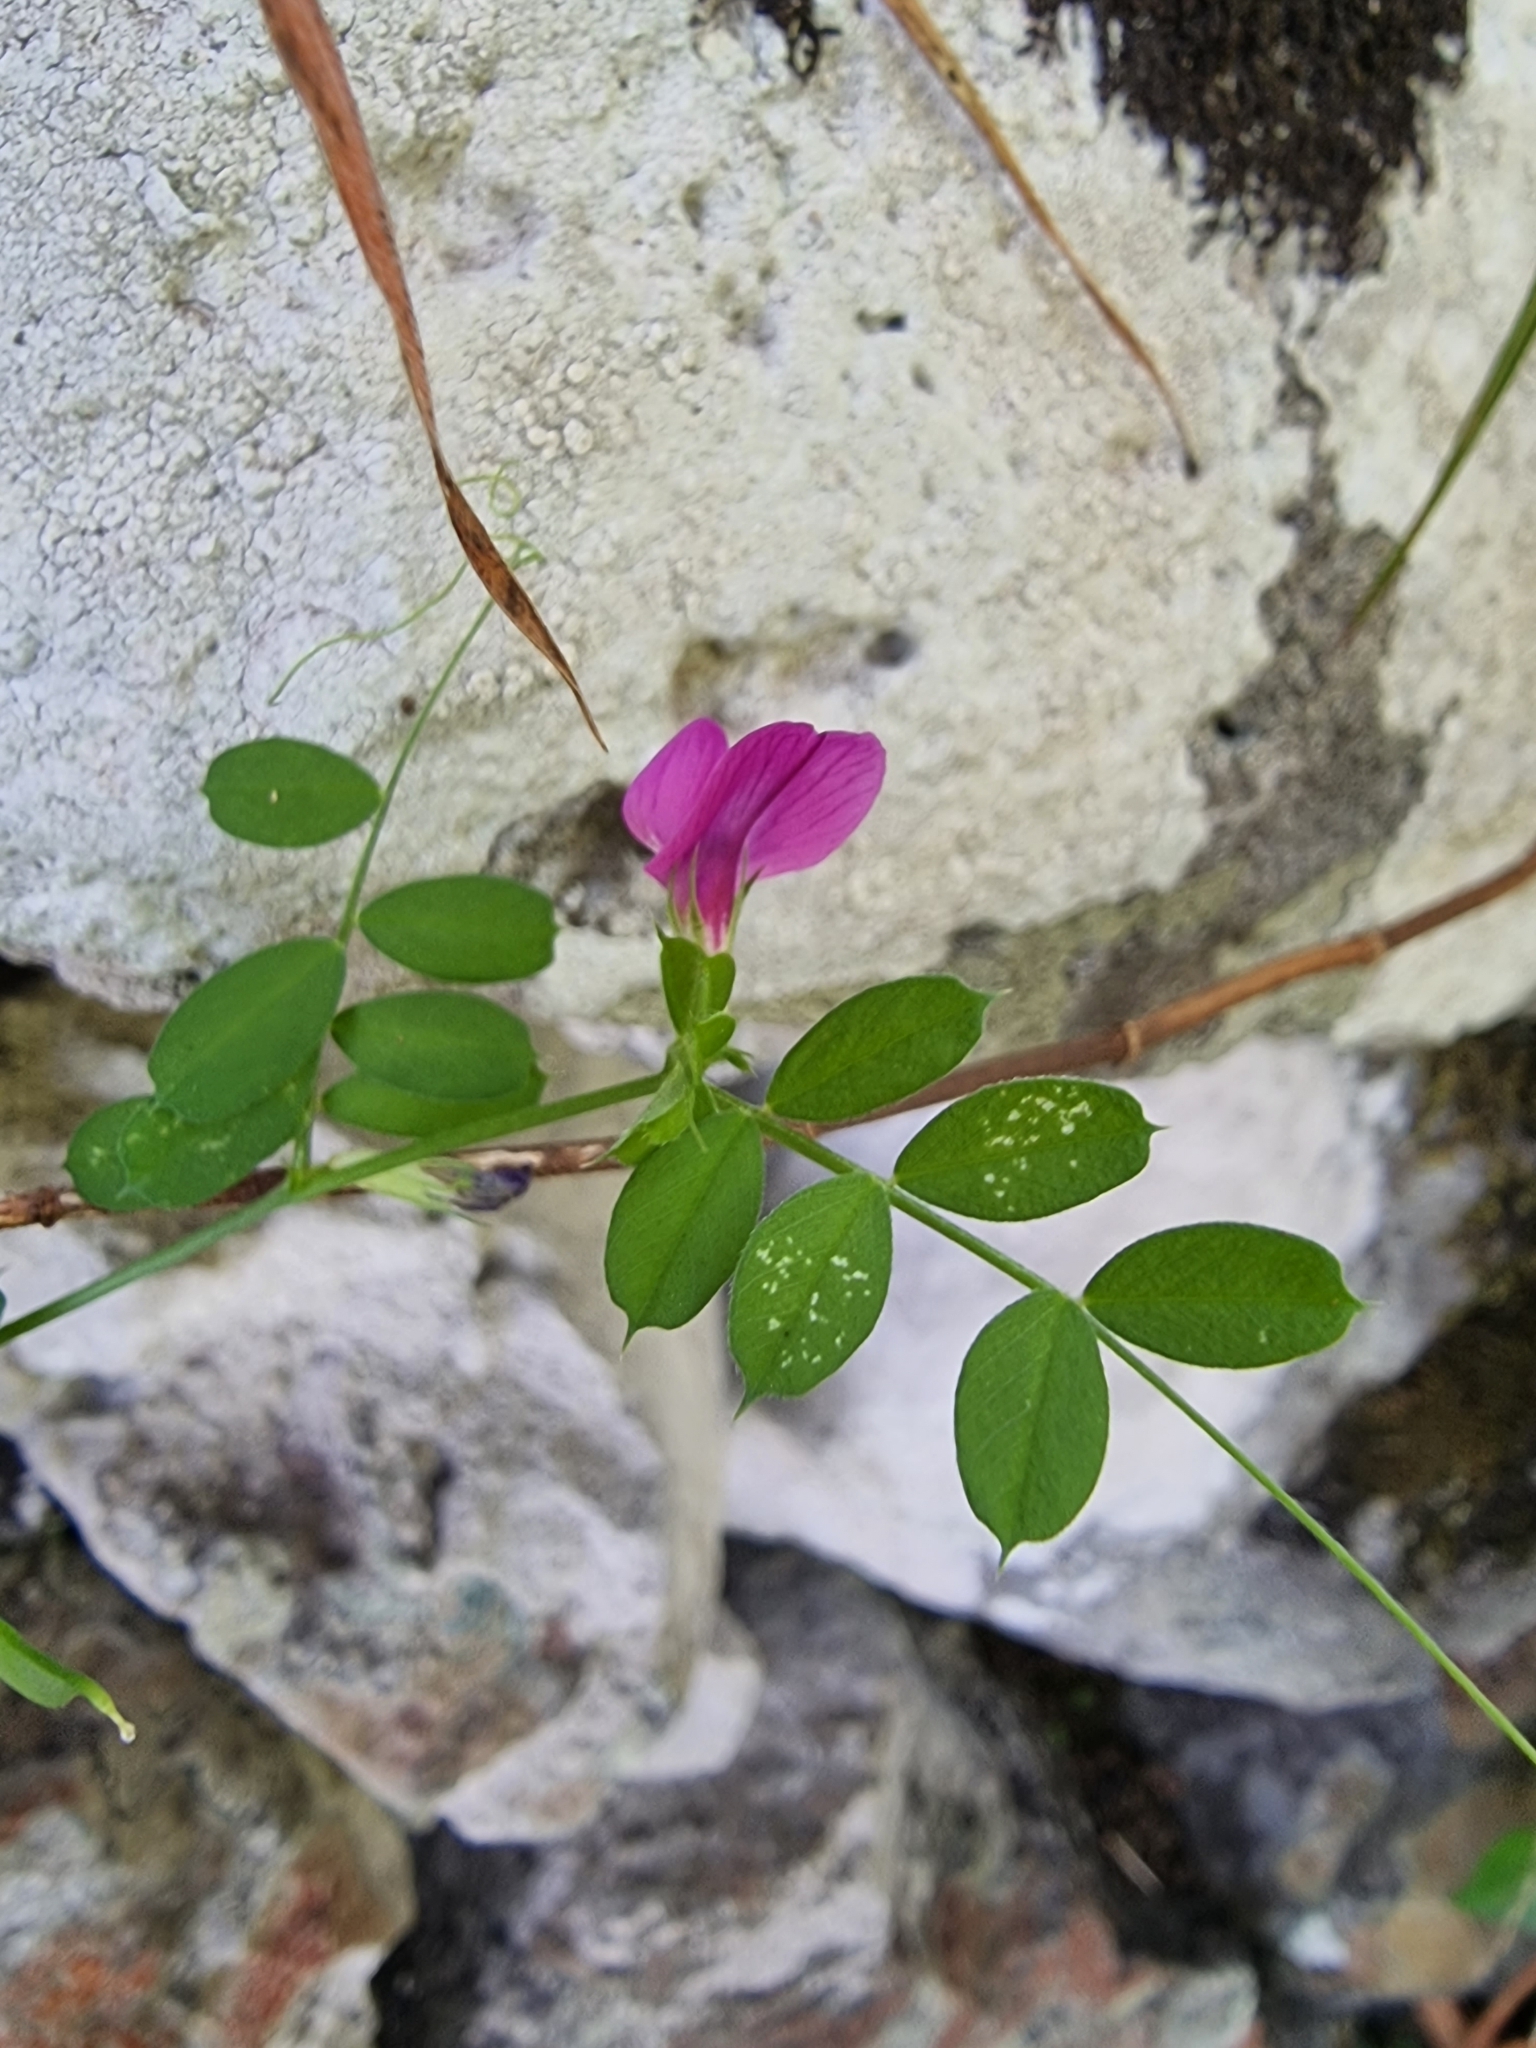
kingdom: Plantae
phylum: Tracheophyta
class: Magnoliopsida
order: Fabales
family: Fabaceae
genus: Vicia
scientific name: Vicia sativa
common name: Garden vetch
